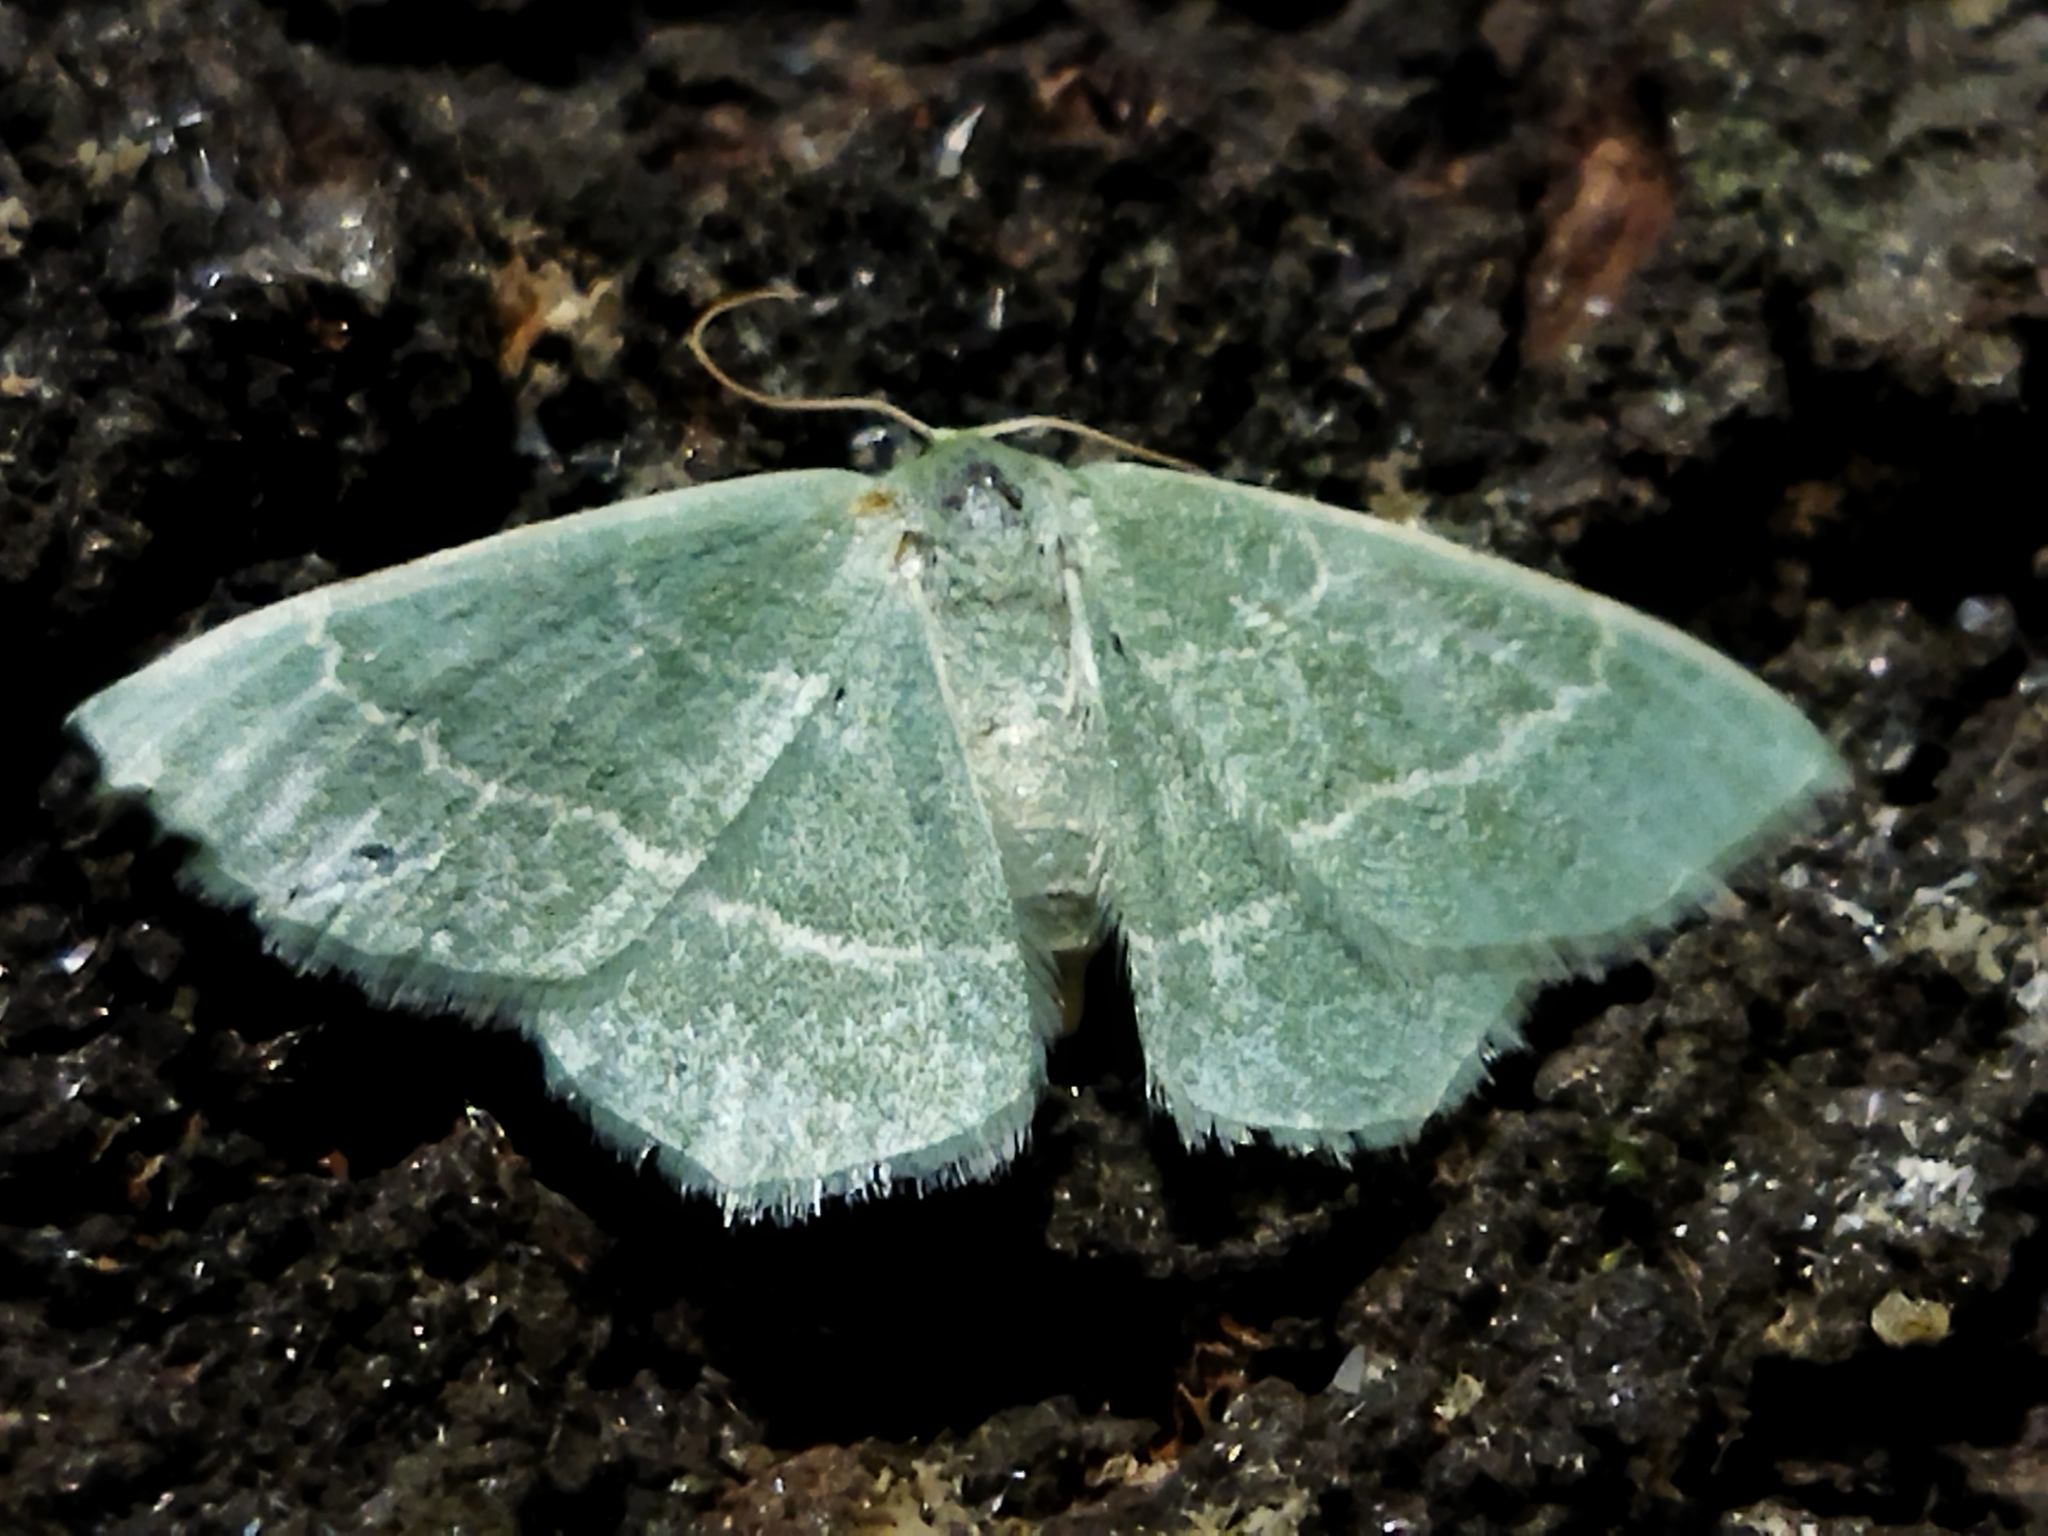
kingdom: Animalia
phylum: Arthropoda
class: Insecta
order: Lepidoptera
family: Geometridae
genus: Chlorissa
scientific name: Chlorissa
